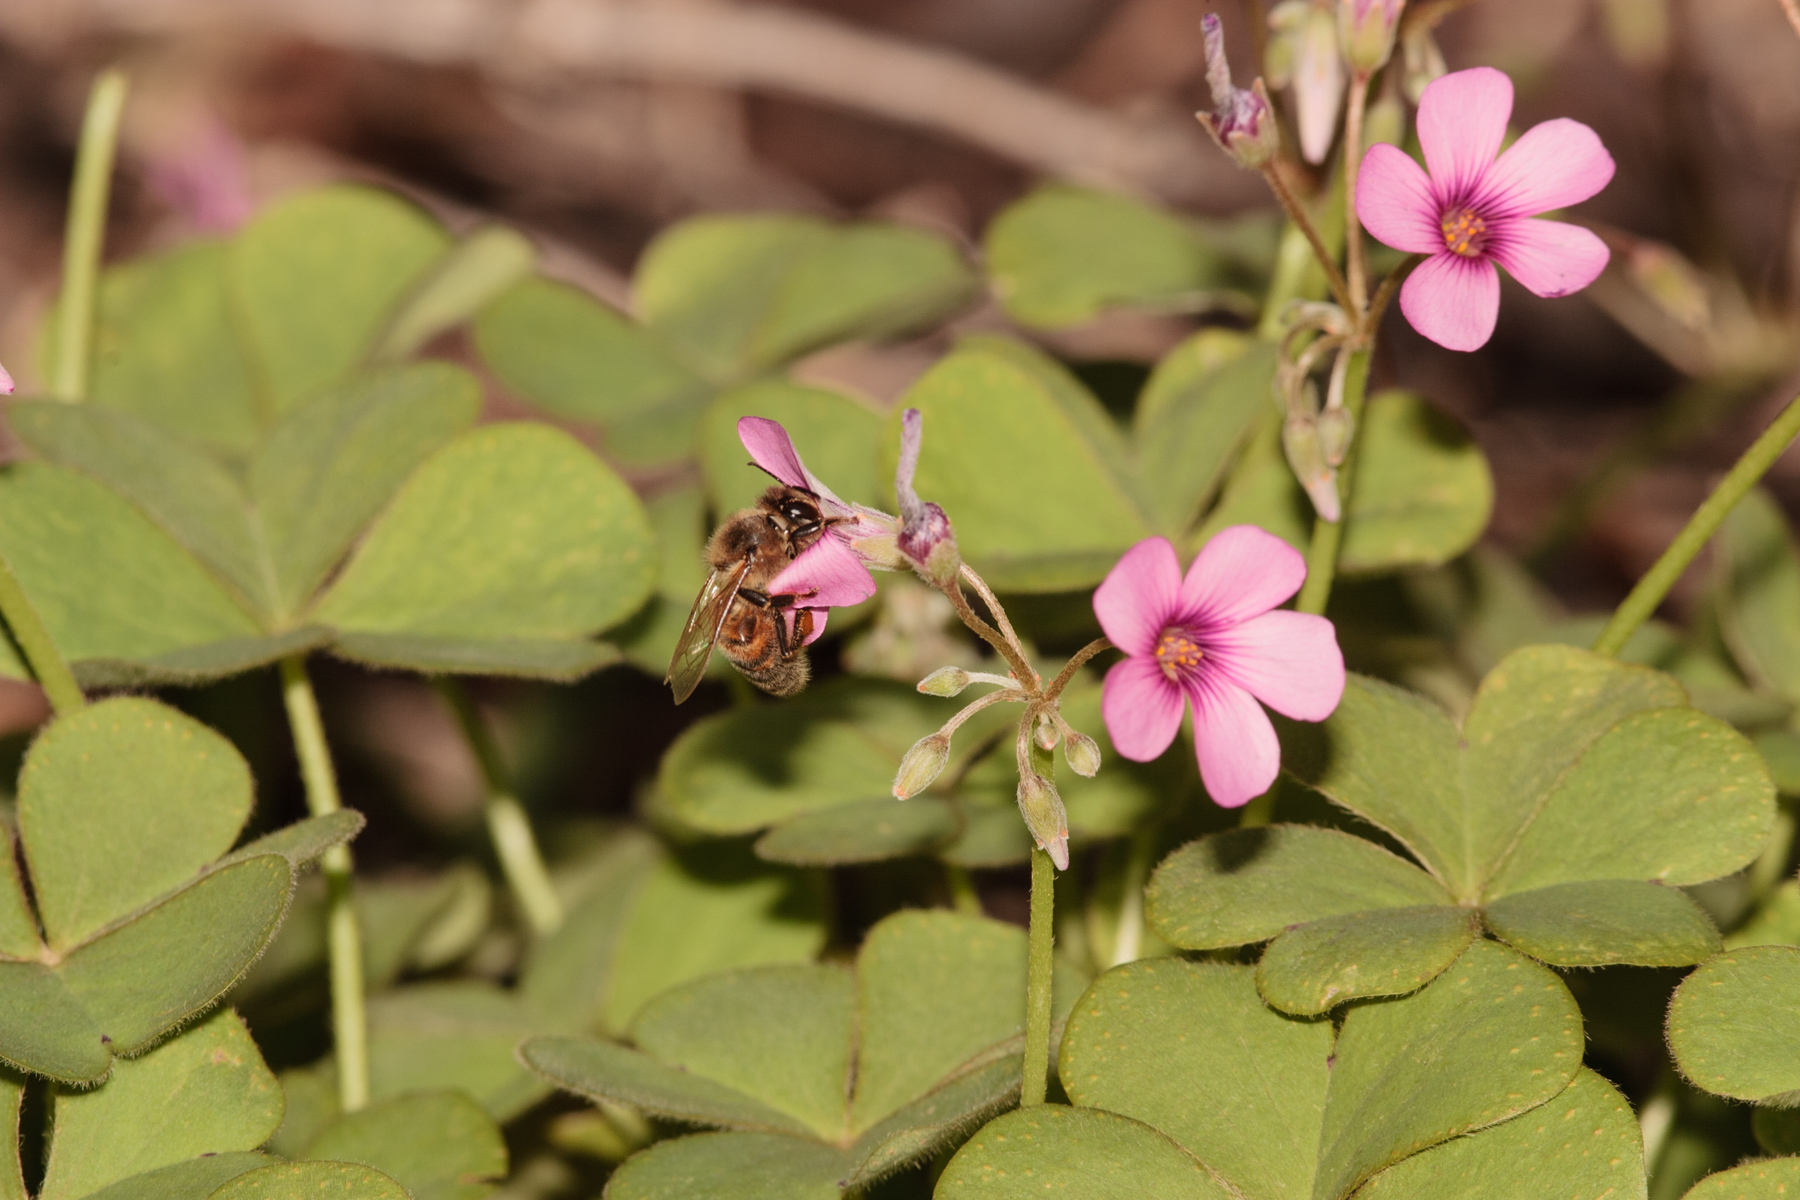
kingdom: Plantae
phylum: Tracheophyta
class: Magnoliopsida
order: Oxalidales
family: Oxalidaceae
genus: Oxalis
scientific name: Oxalis articulata
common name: Pink-sorrel
